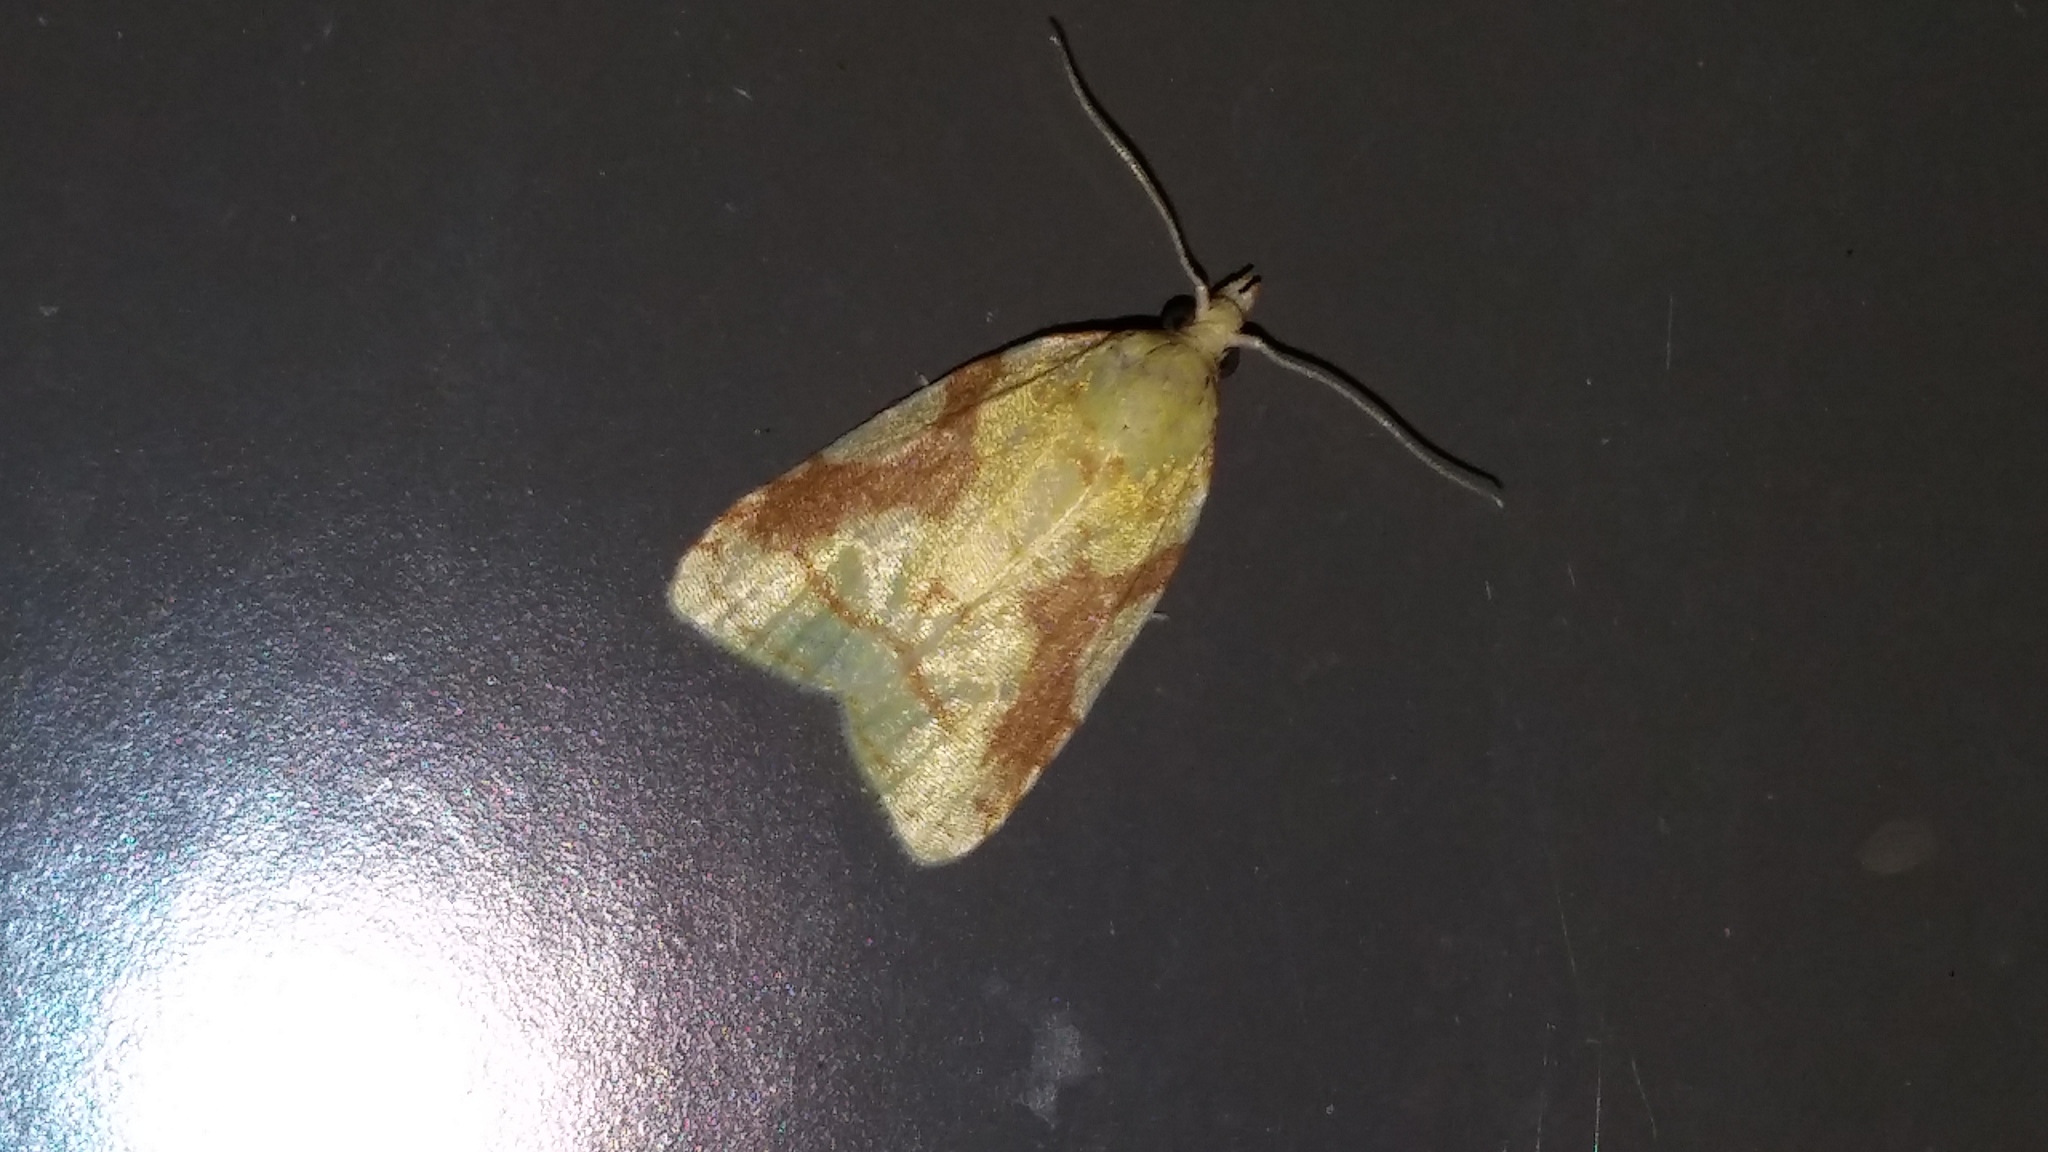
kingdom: Animalia
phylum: Arthropoda
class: Insecta
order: Lepidoptera
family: Tortricidae
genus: Cenopis
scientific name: Cenopis niveana
